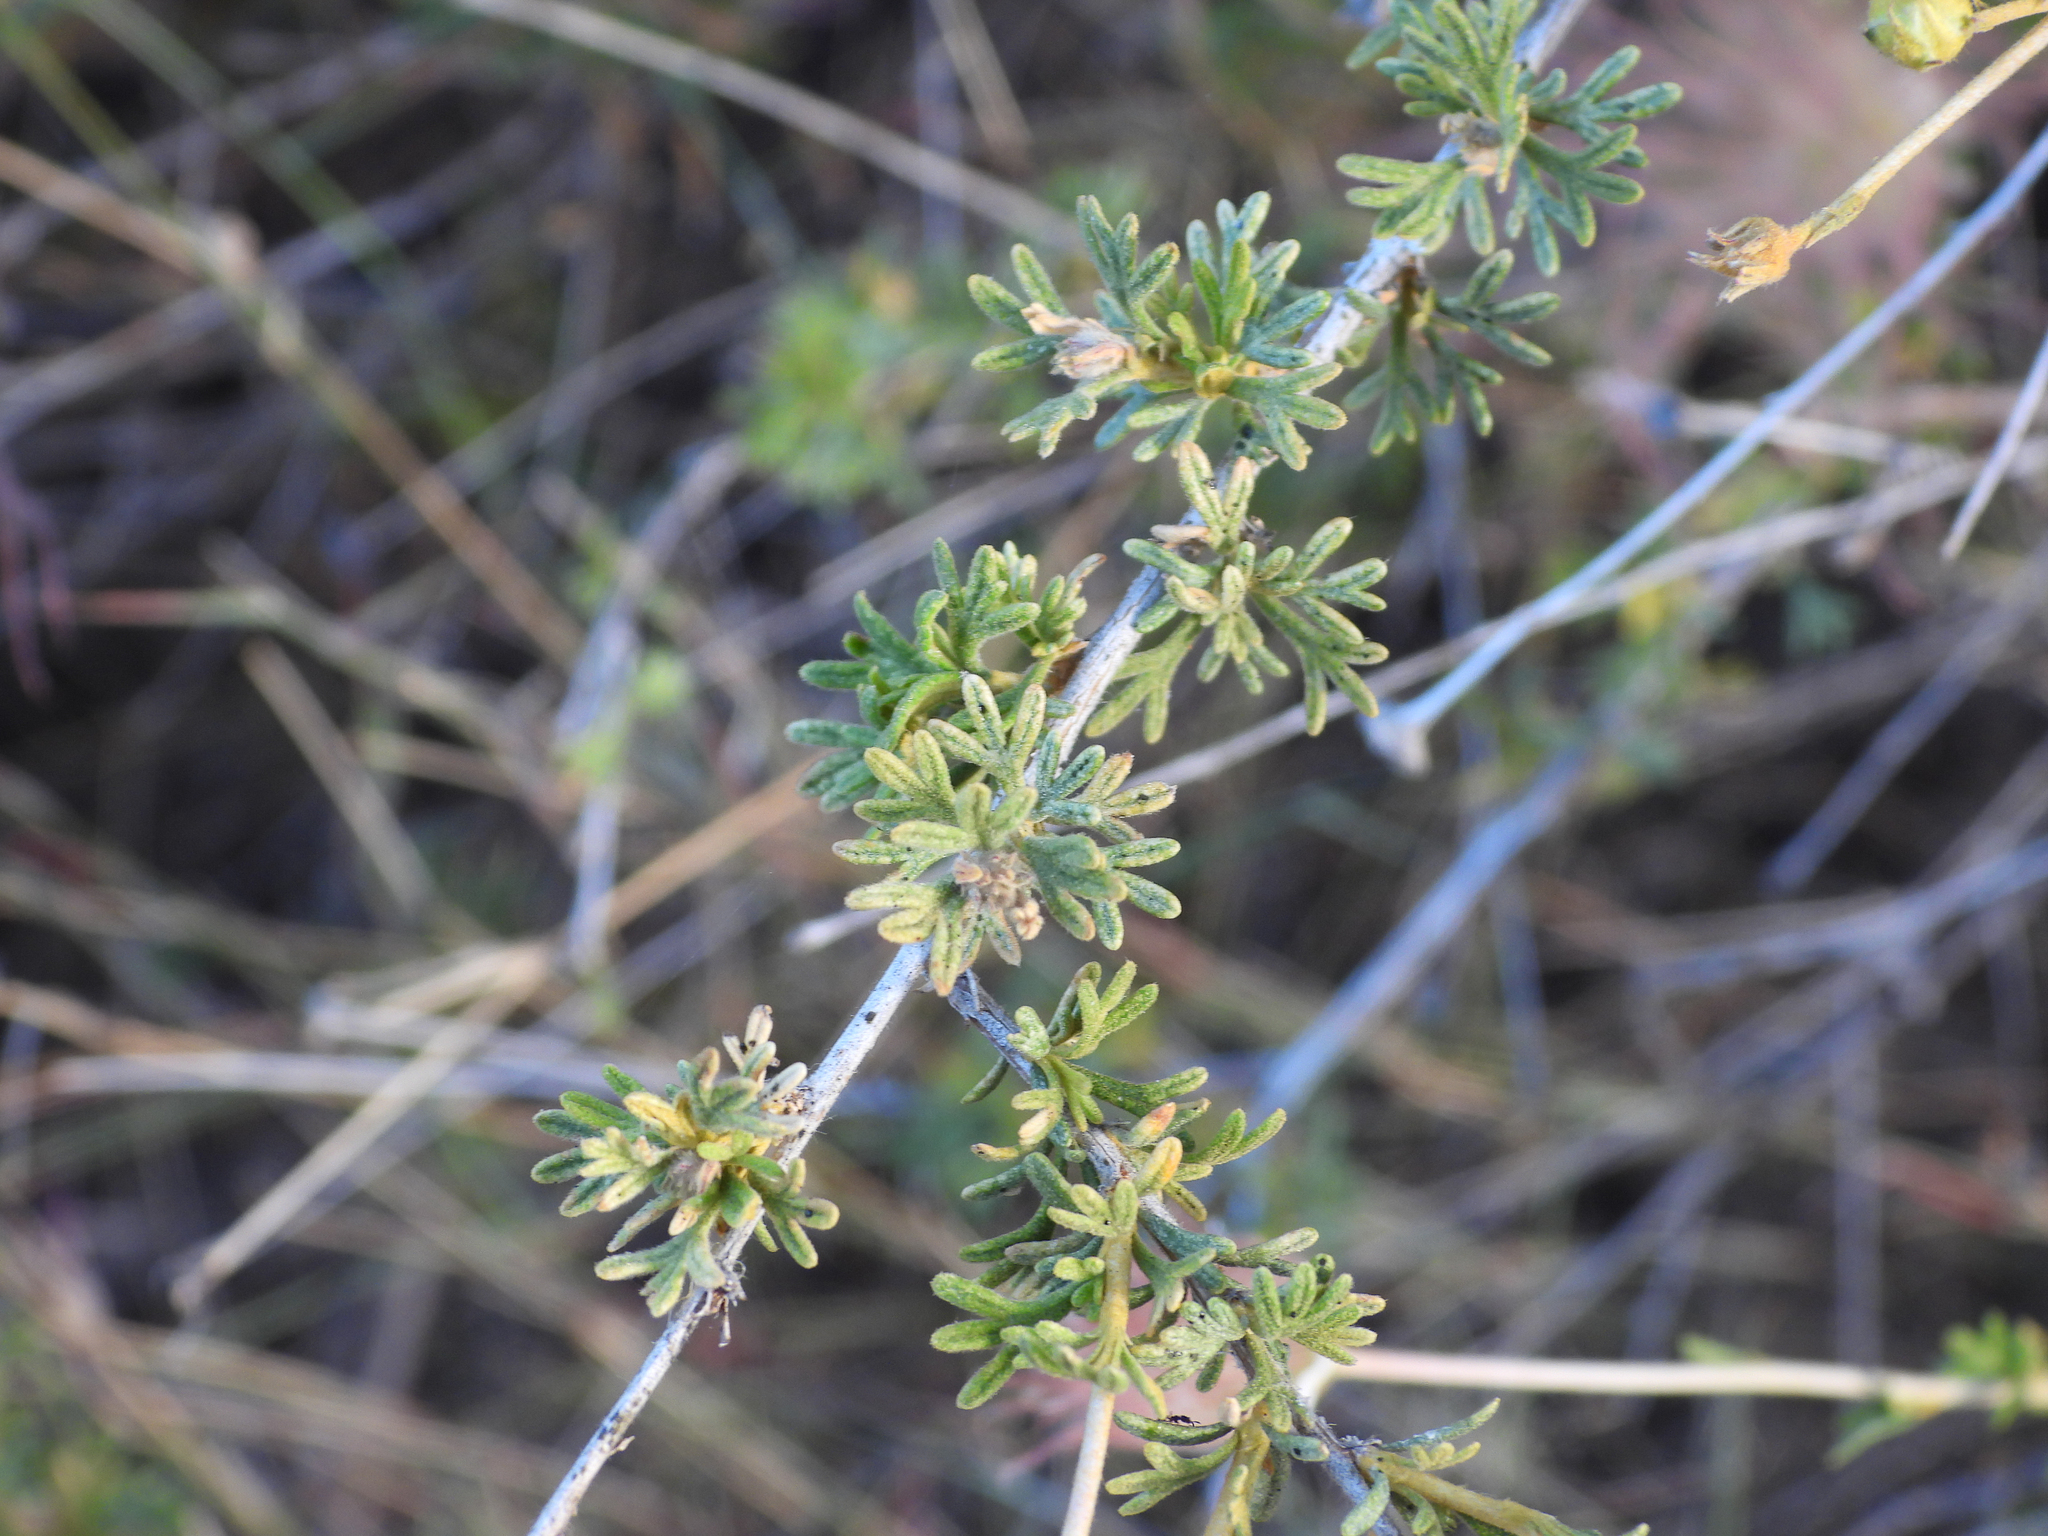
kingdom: Plantae
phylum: Tracheophyta
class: Magnoliopsida
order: Rosales
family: Rosaceae
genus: Fallugia
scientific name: Fallugia paradoxa
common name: Apache-plume
